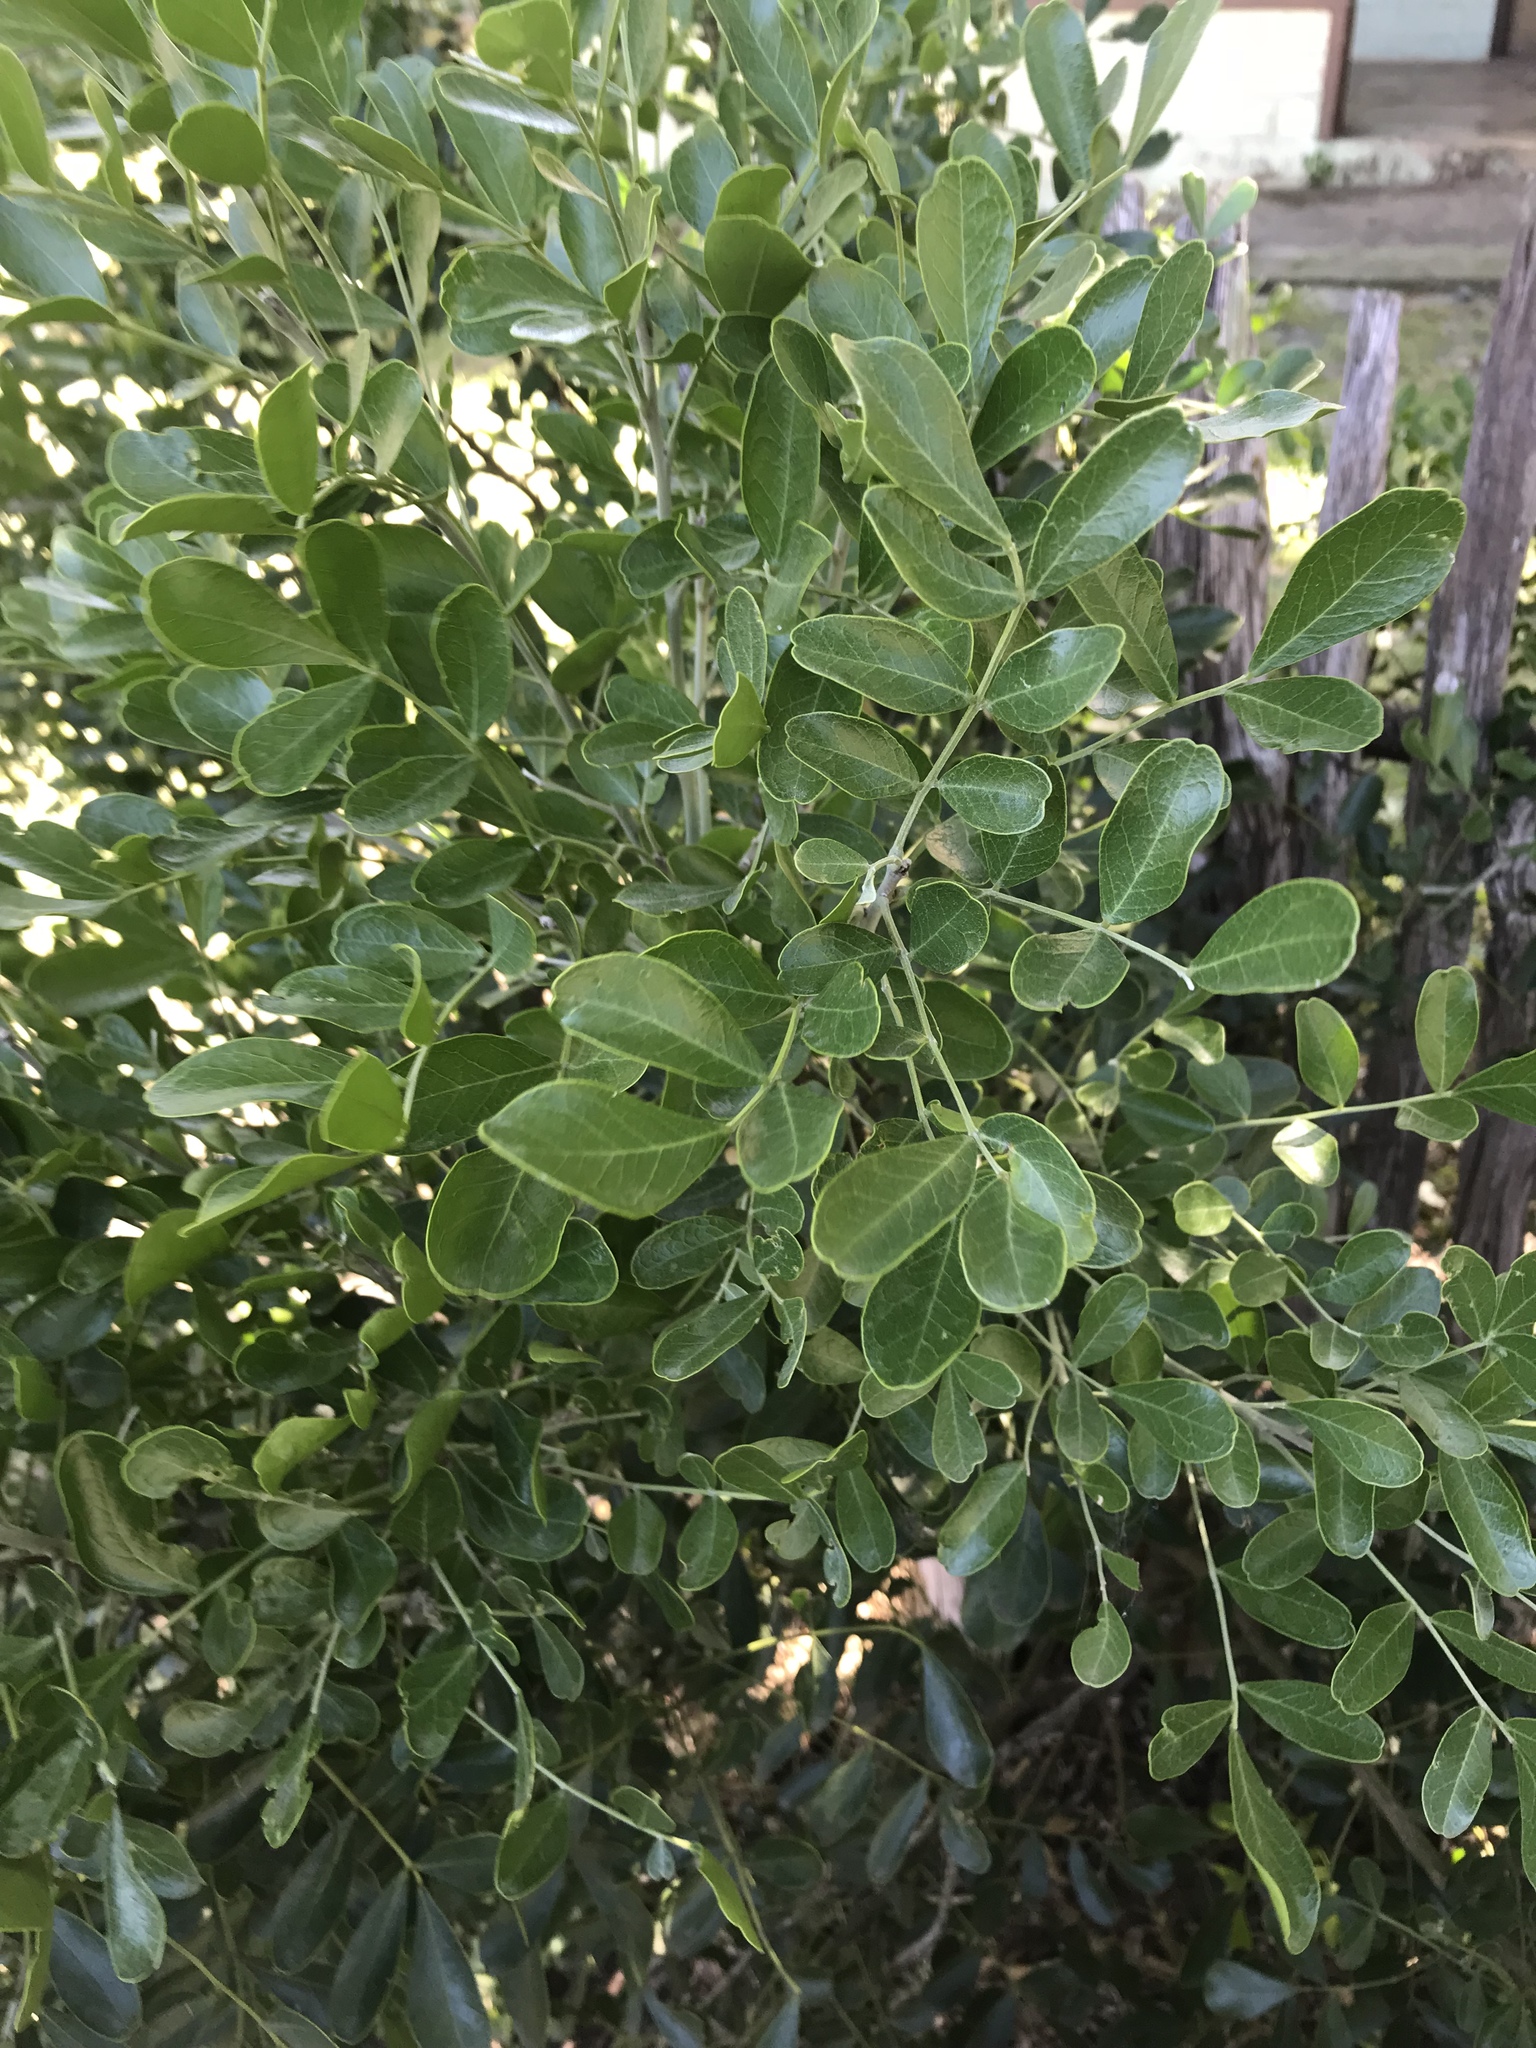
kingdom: Plantae
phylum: Tracheophyta
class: Magnoliopsida
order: Fabales
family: Fabaceae
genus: Dermatophyllum
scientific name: Dermatophyllum secundiflorum
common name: Texas-mountain-laurel
